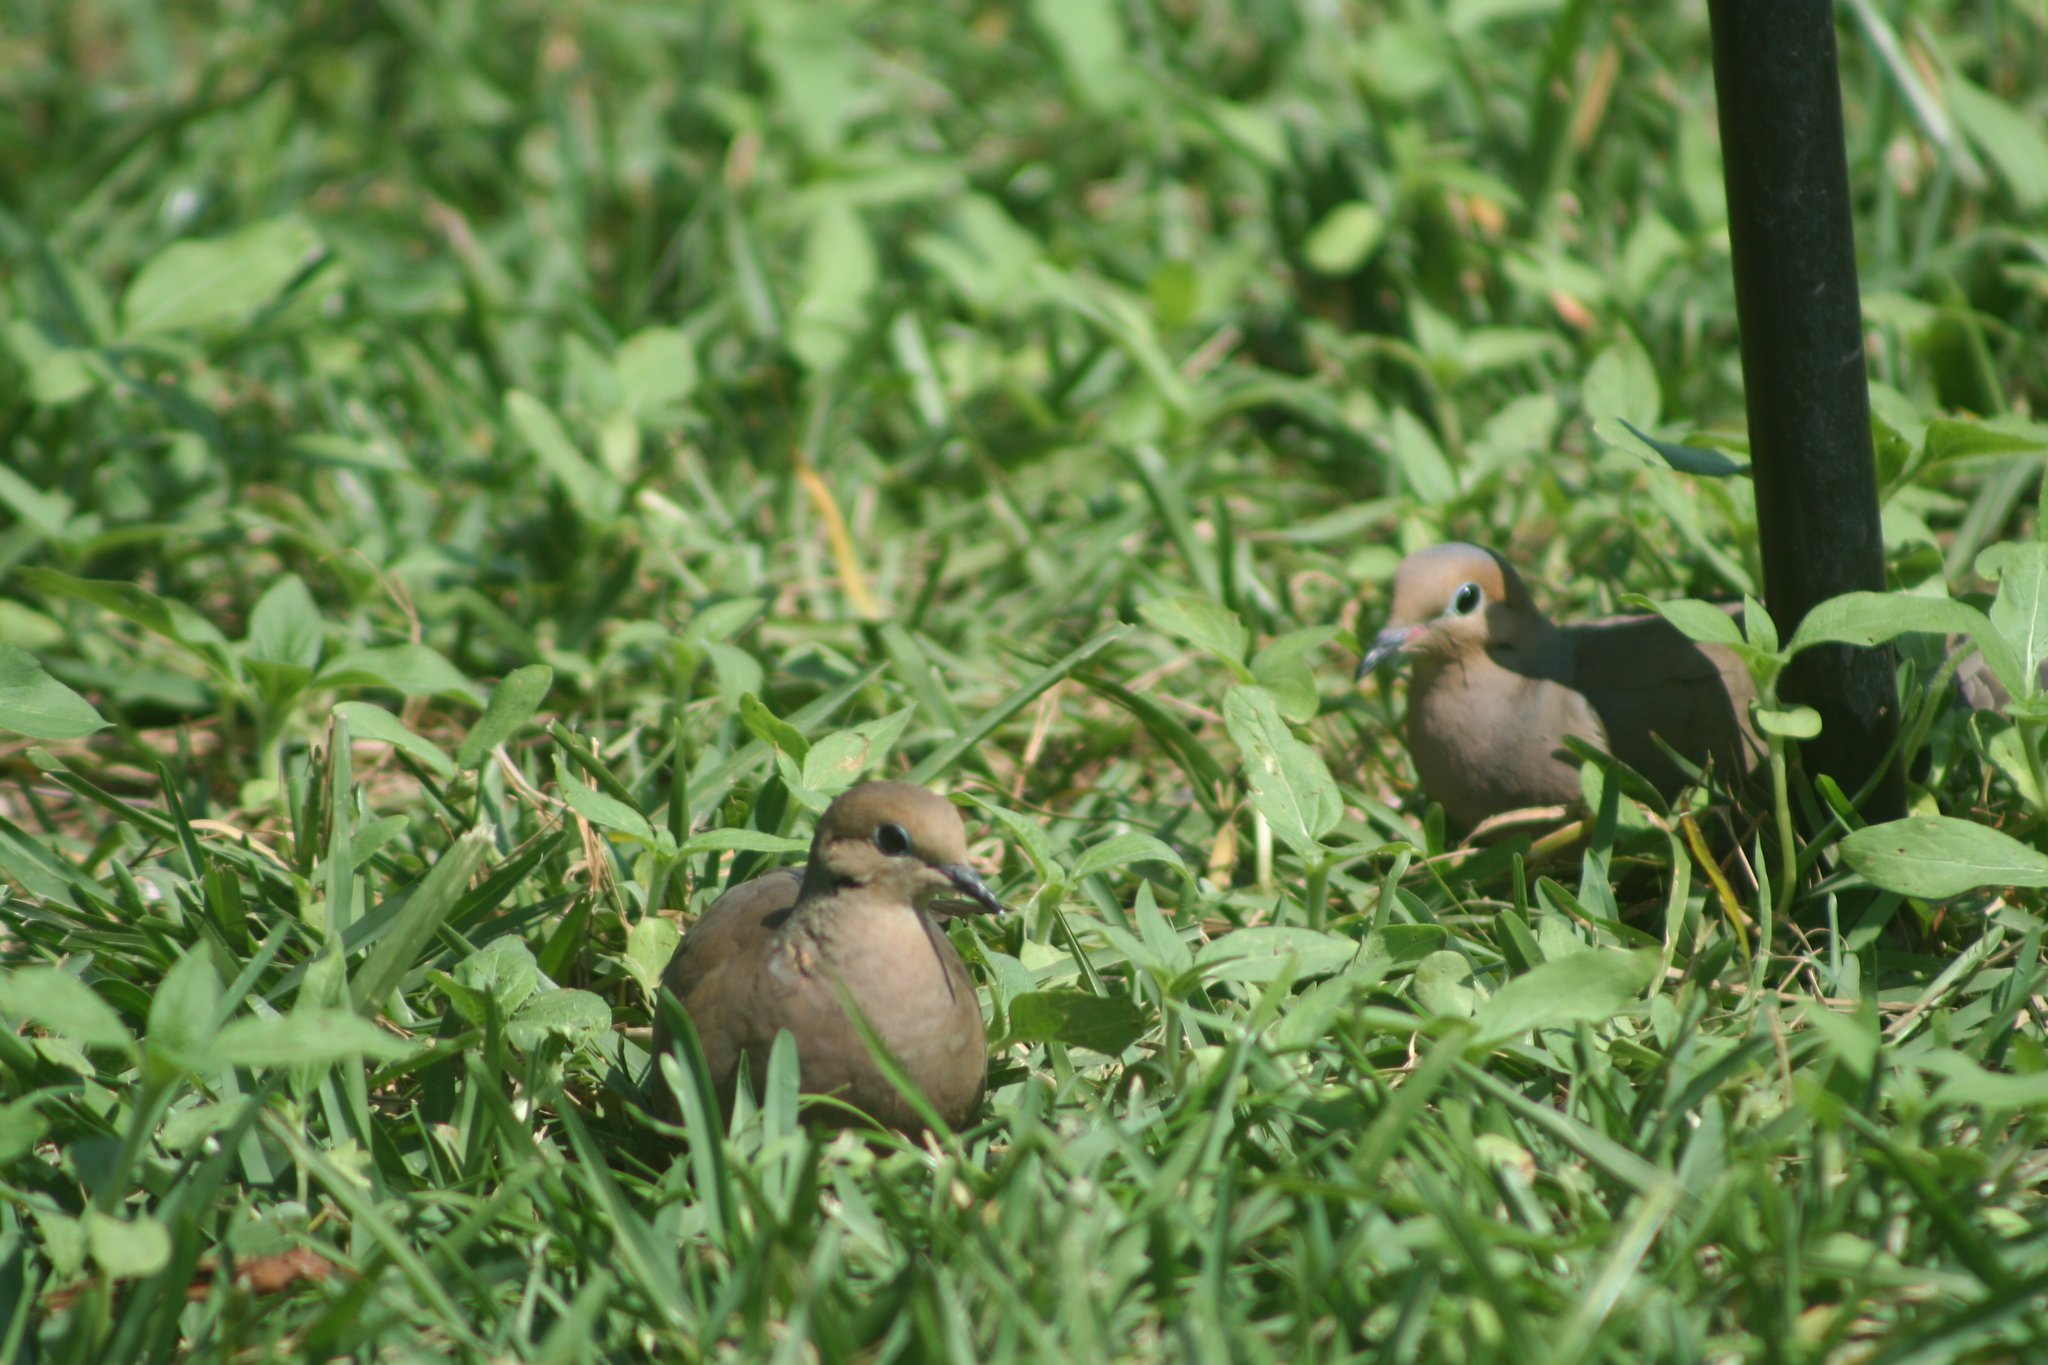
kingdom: Animalia
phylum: Chordata
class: Aves
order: Columbiformes
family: Columbidae
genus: Zenaida
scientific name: Zenaida macroura
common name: Mourning dove
